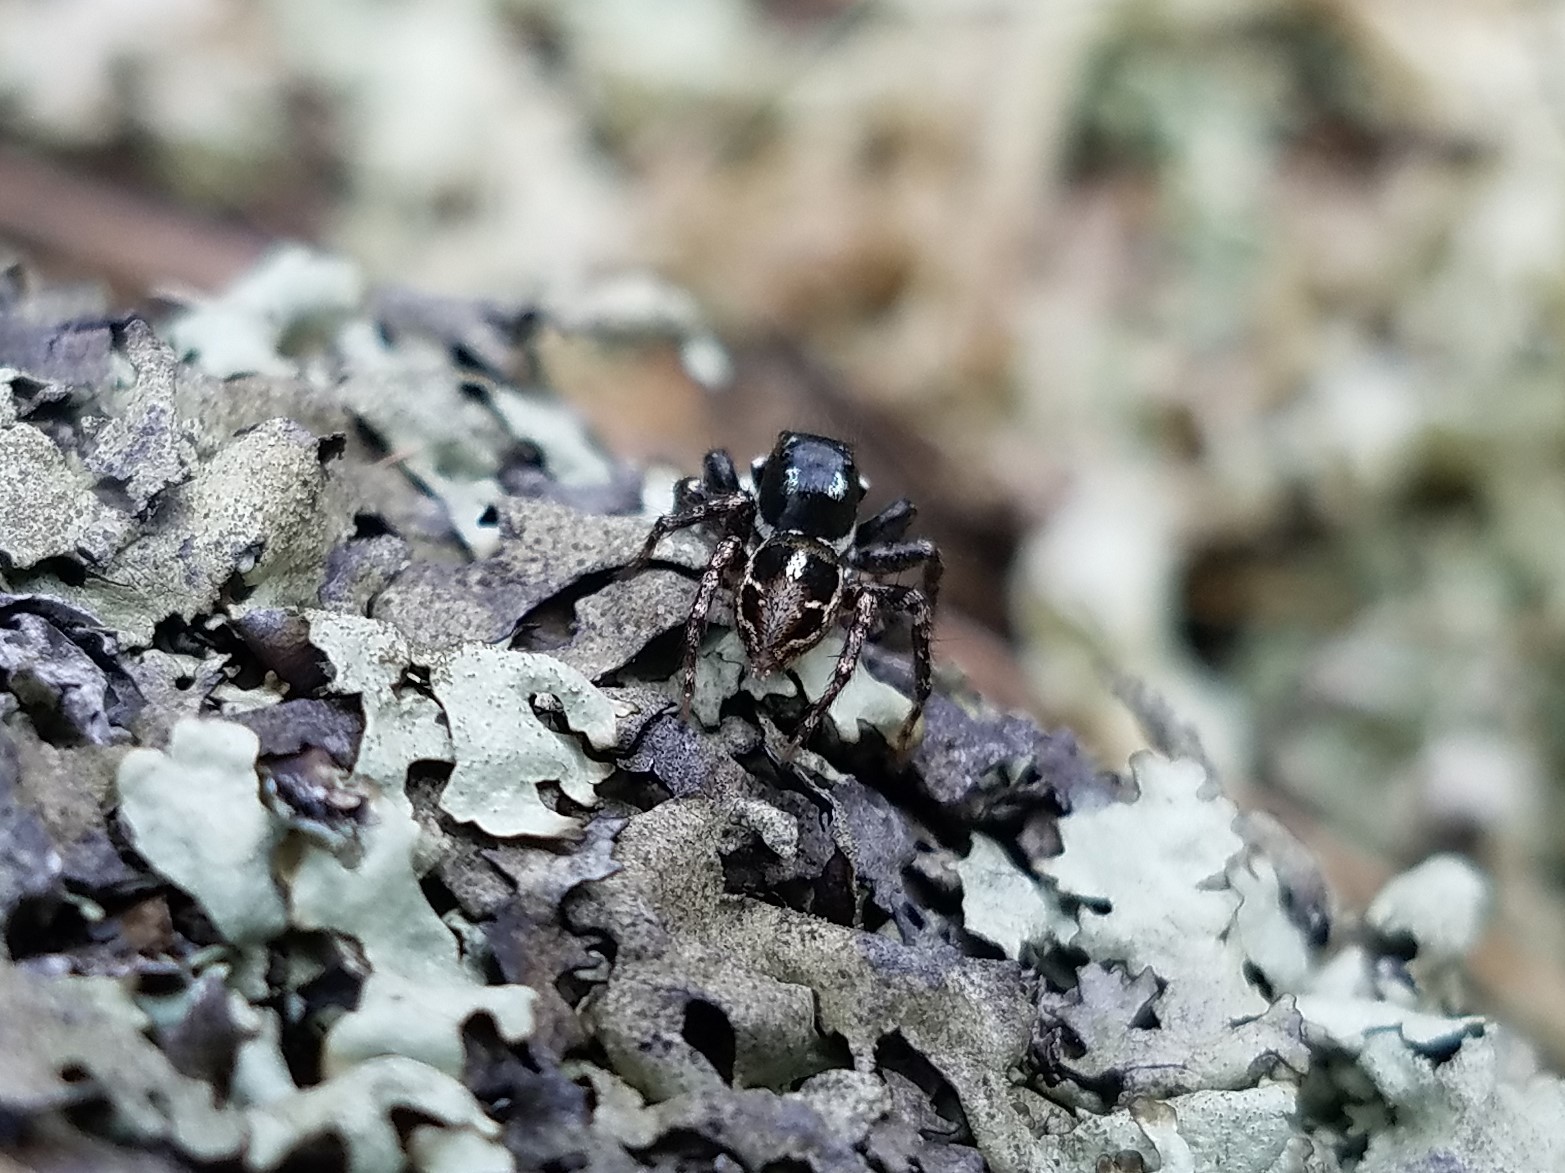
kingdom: Animalia
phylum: Arthropoda
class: Arachnida
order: Araneae
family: Salticidae
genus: Anasaitis
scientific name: Anasaitis canosa
